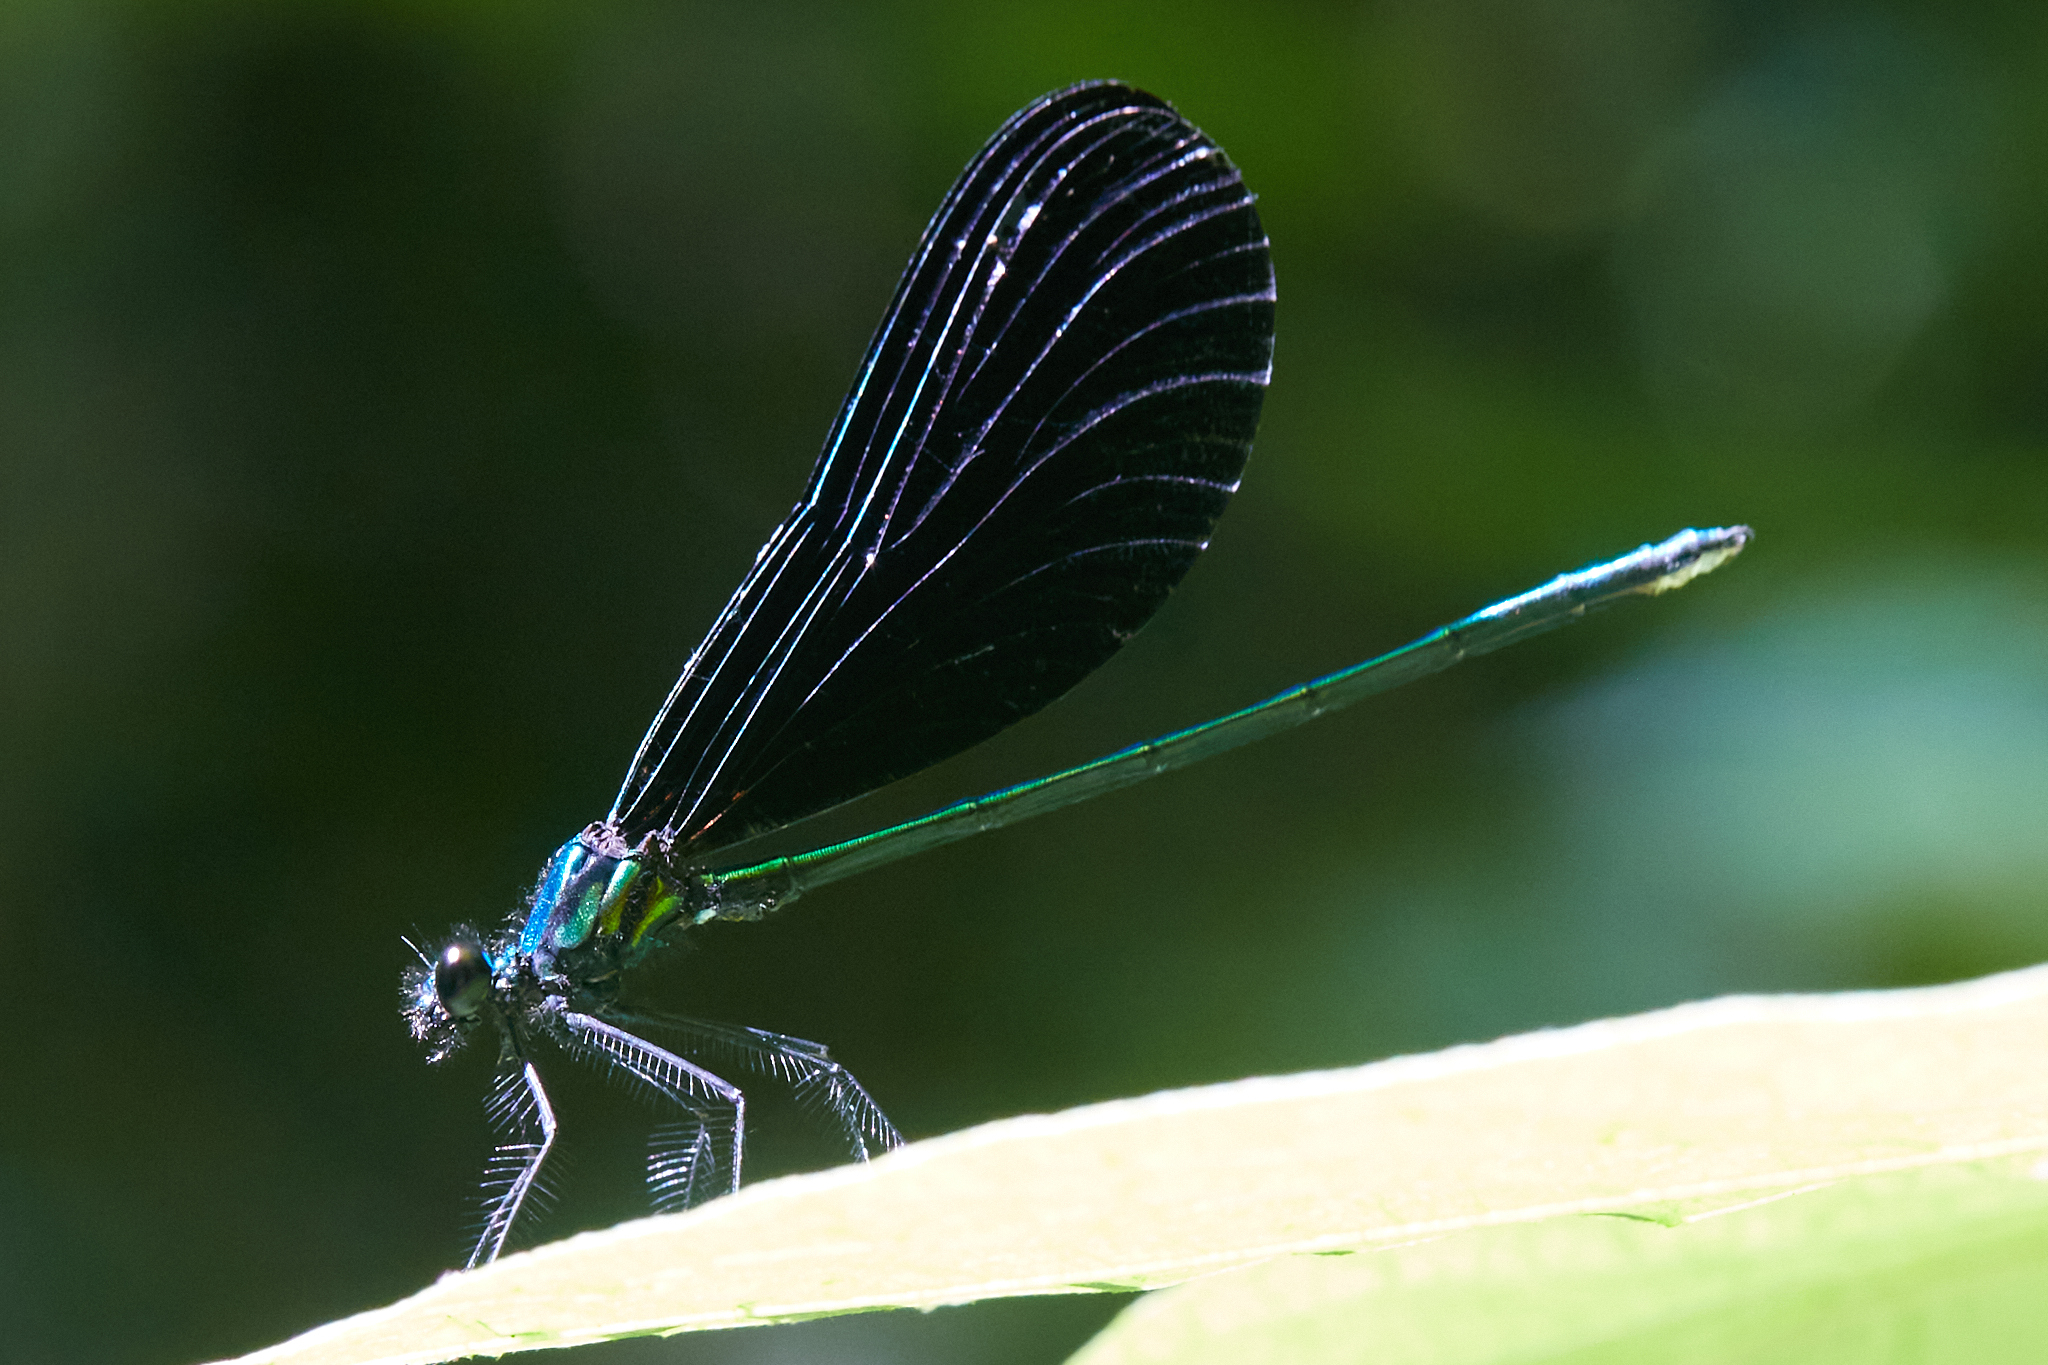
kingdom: Animalia
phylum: Arthropoda
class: Insecta
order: Odonata
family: Calopterygidae
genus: Calopteryx
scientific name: Calopteryx maculata
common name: Ebony jewelwing
